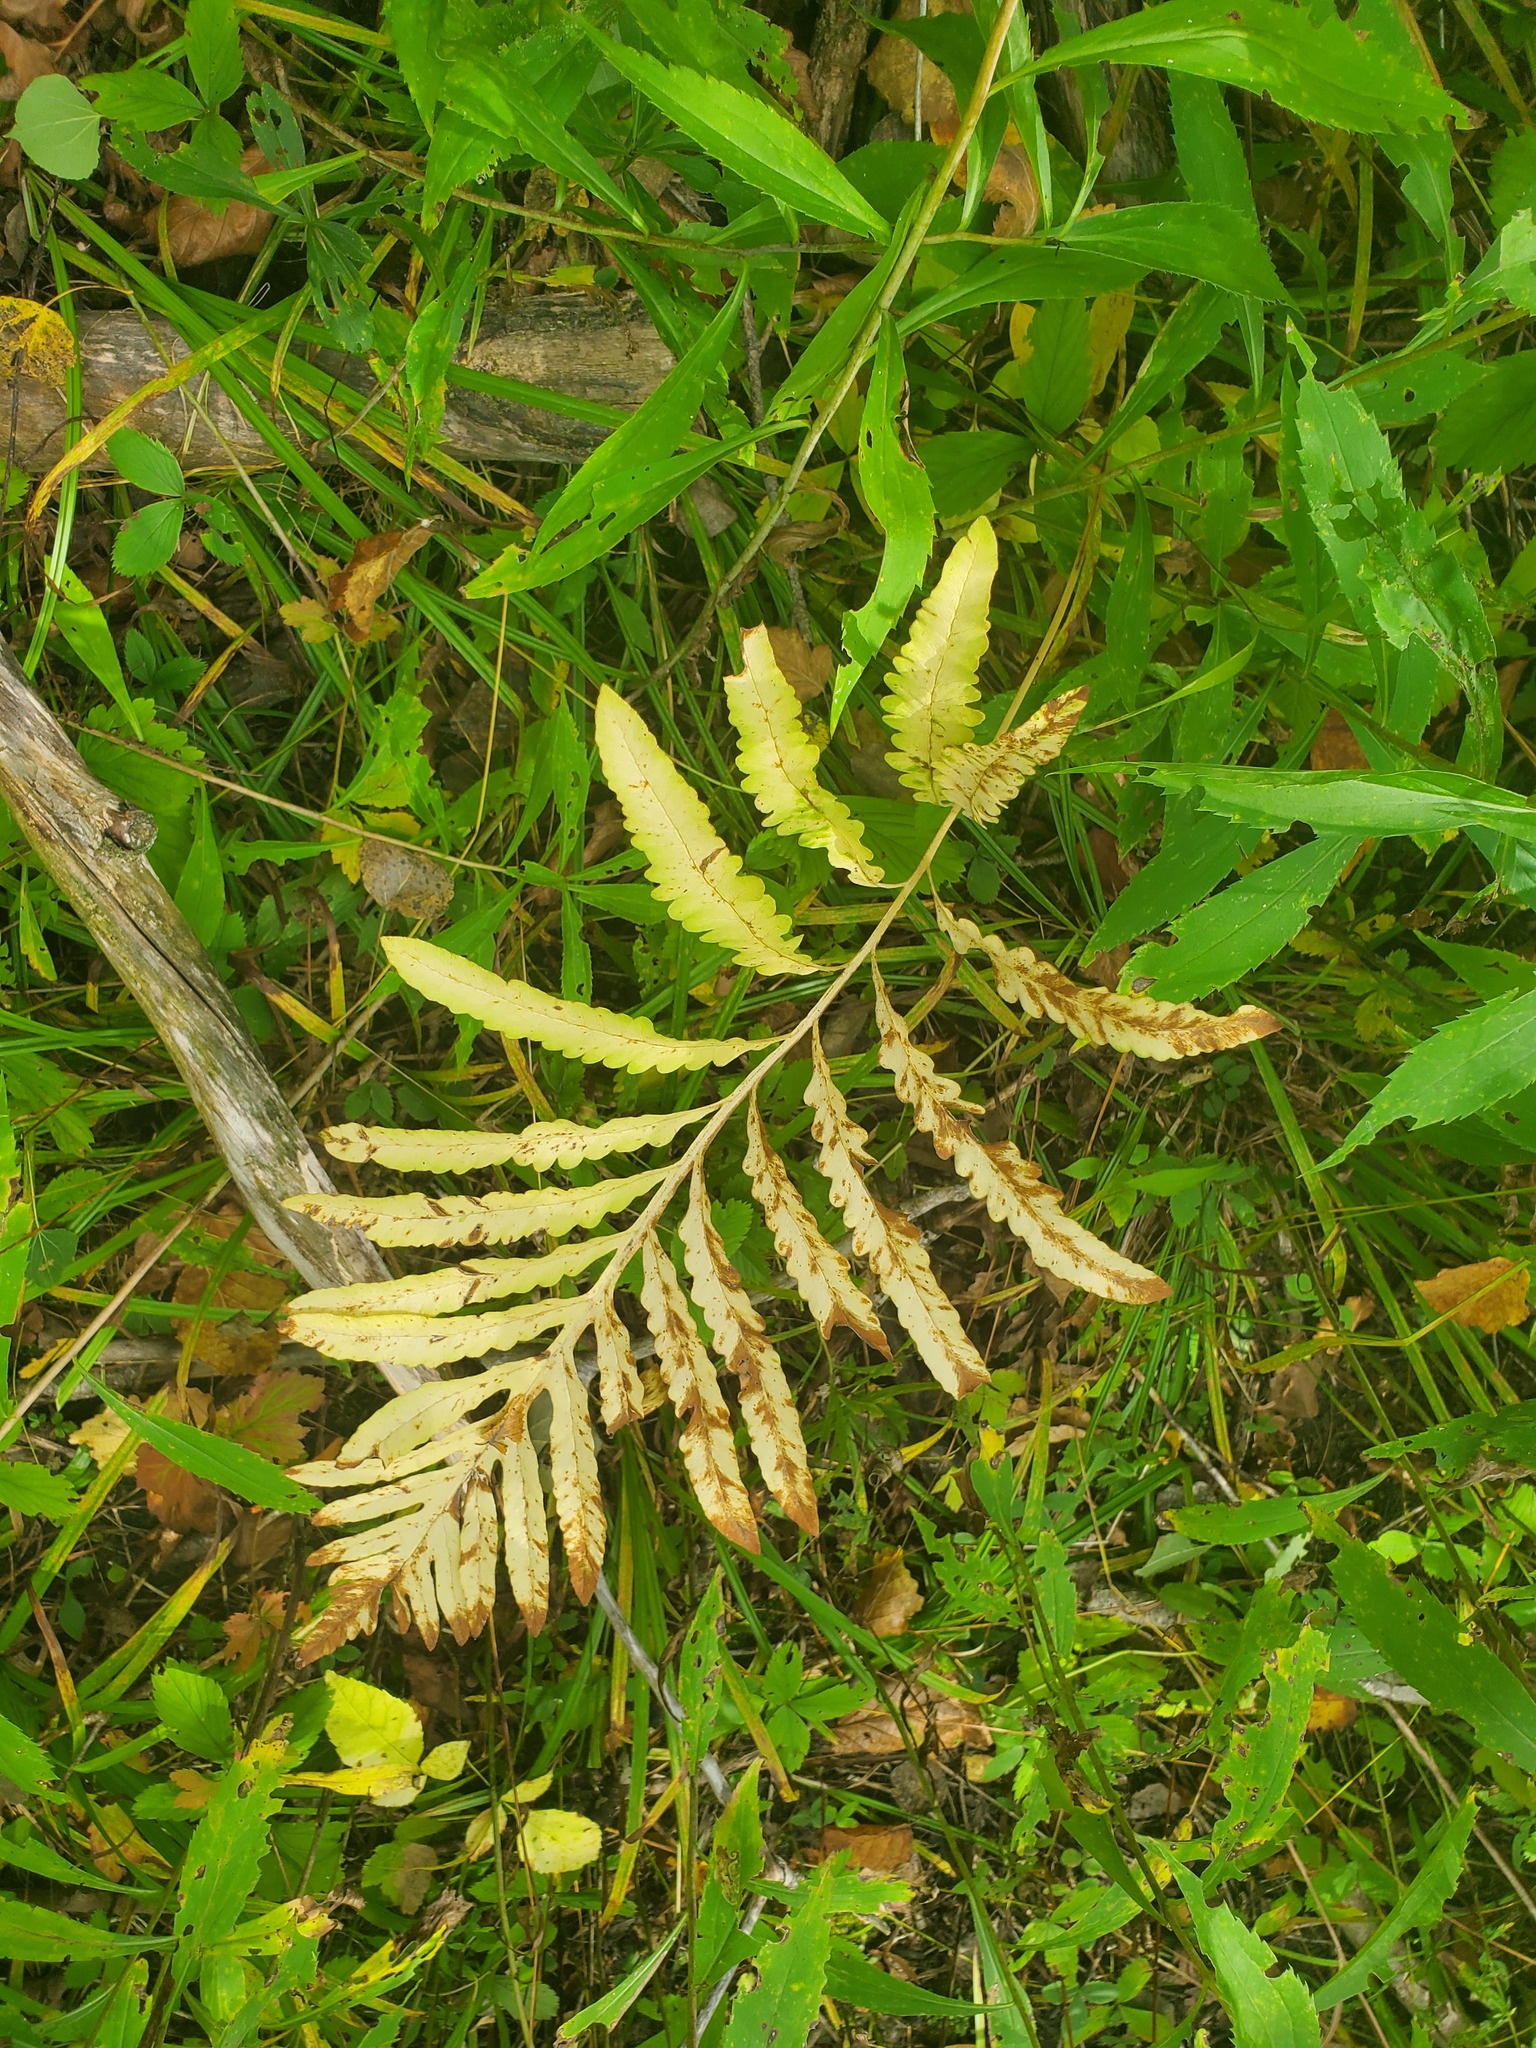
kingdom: Plantae
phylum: Tracheophyta
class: Polypodiopsida
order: Polypodiales
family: Onocleaceae
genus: Onoclea
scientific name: Onoclea sensibilis
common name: Sensitive fern
